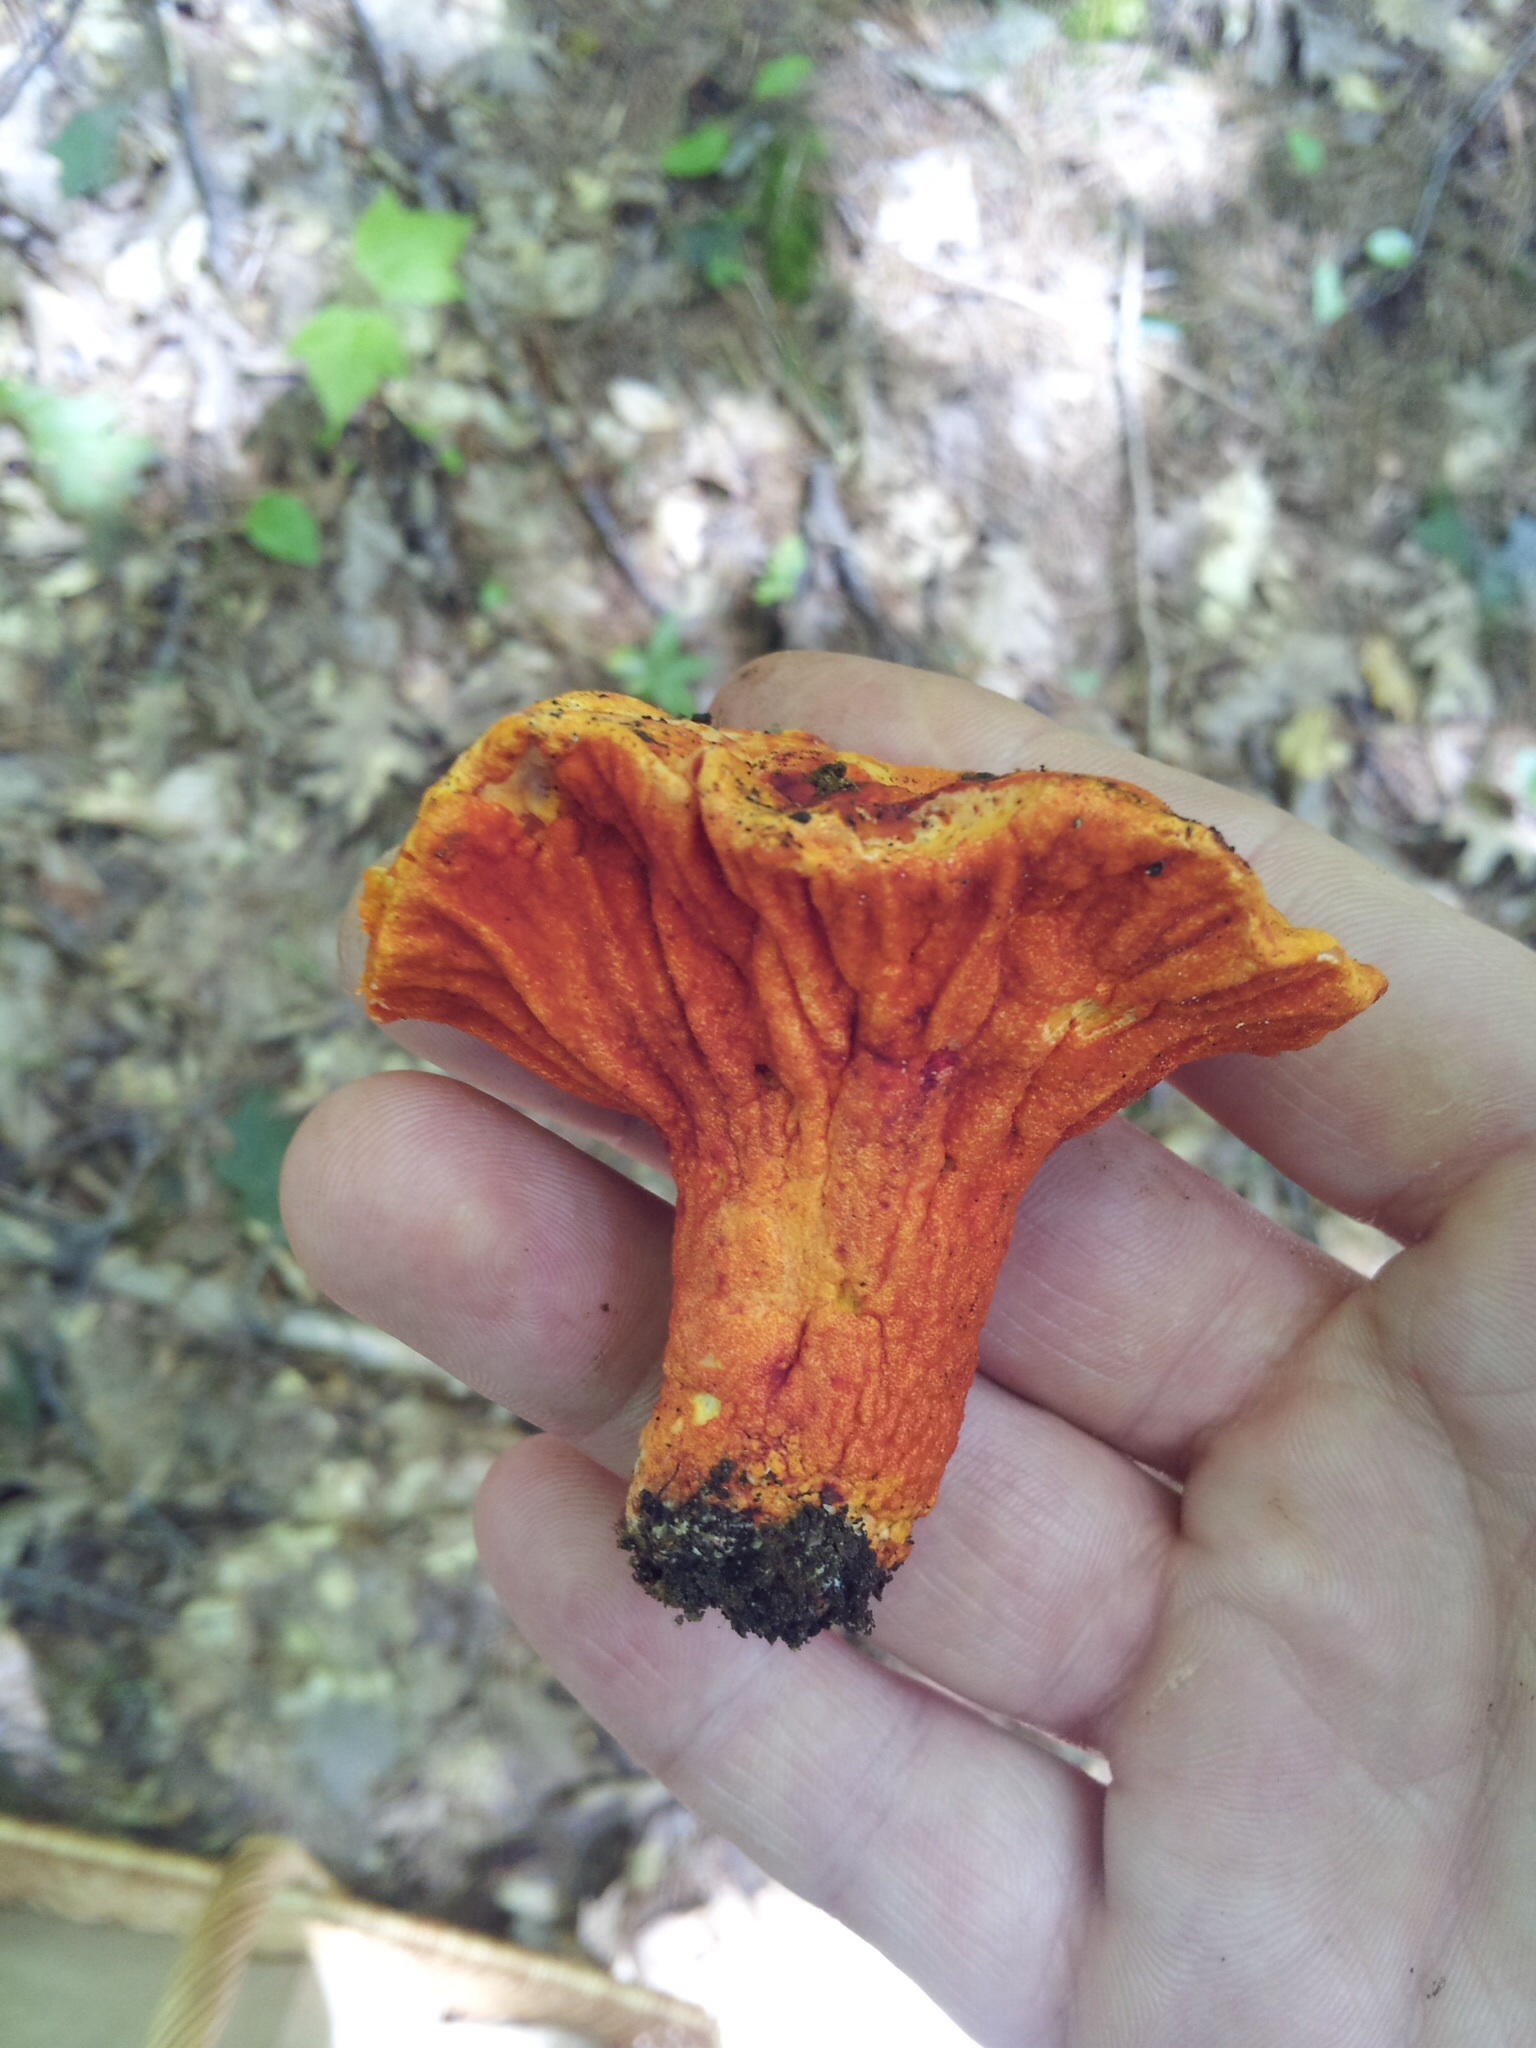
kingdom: Fungi
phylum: Ascomycota
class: Sordariomycetes
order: Hypocreales
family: Hypocreaceae
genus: Hypomyces
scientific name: Hypomyces lactifluorum
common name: Lobster mushroom
